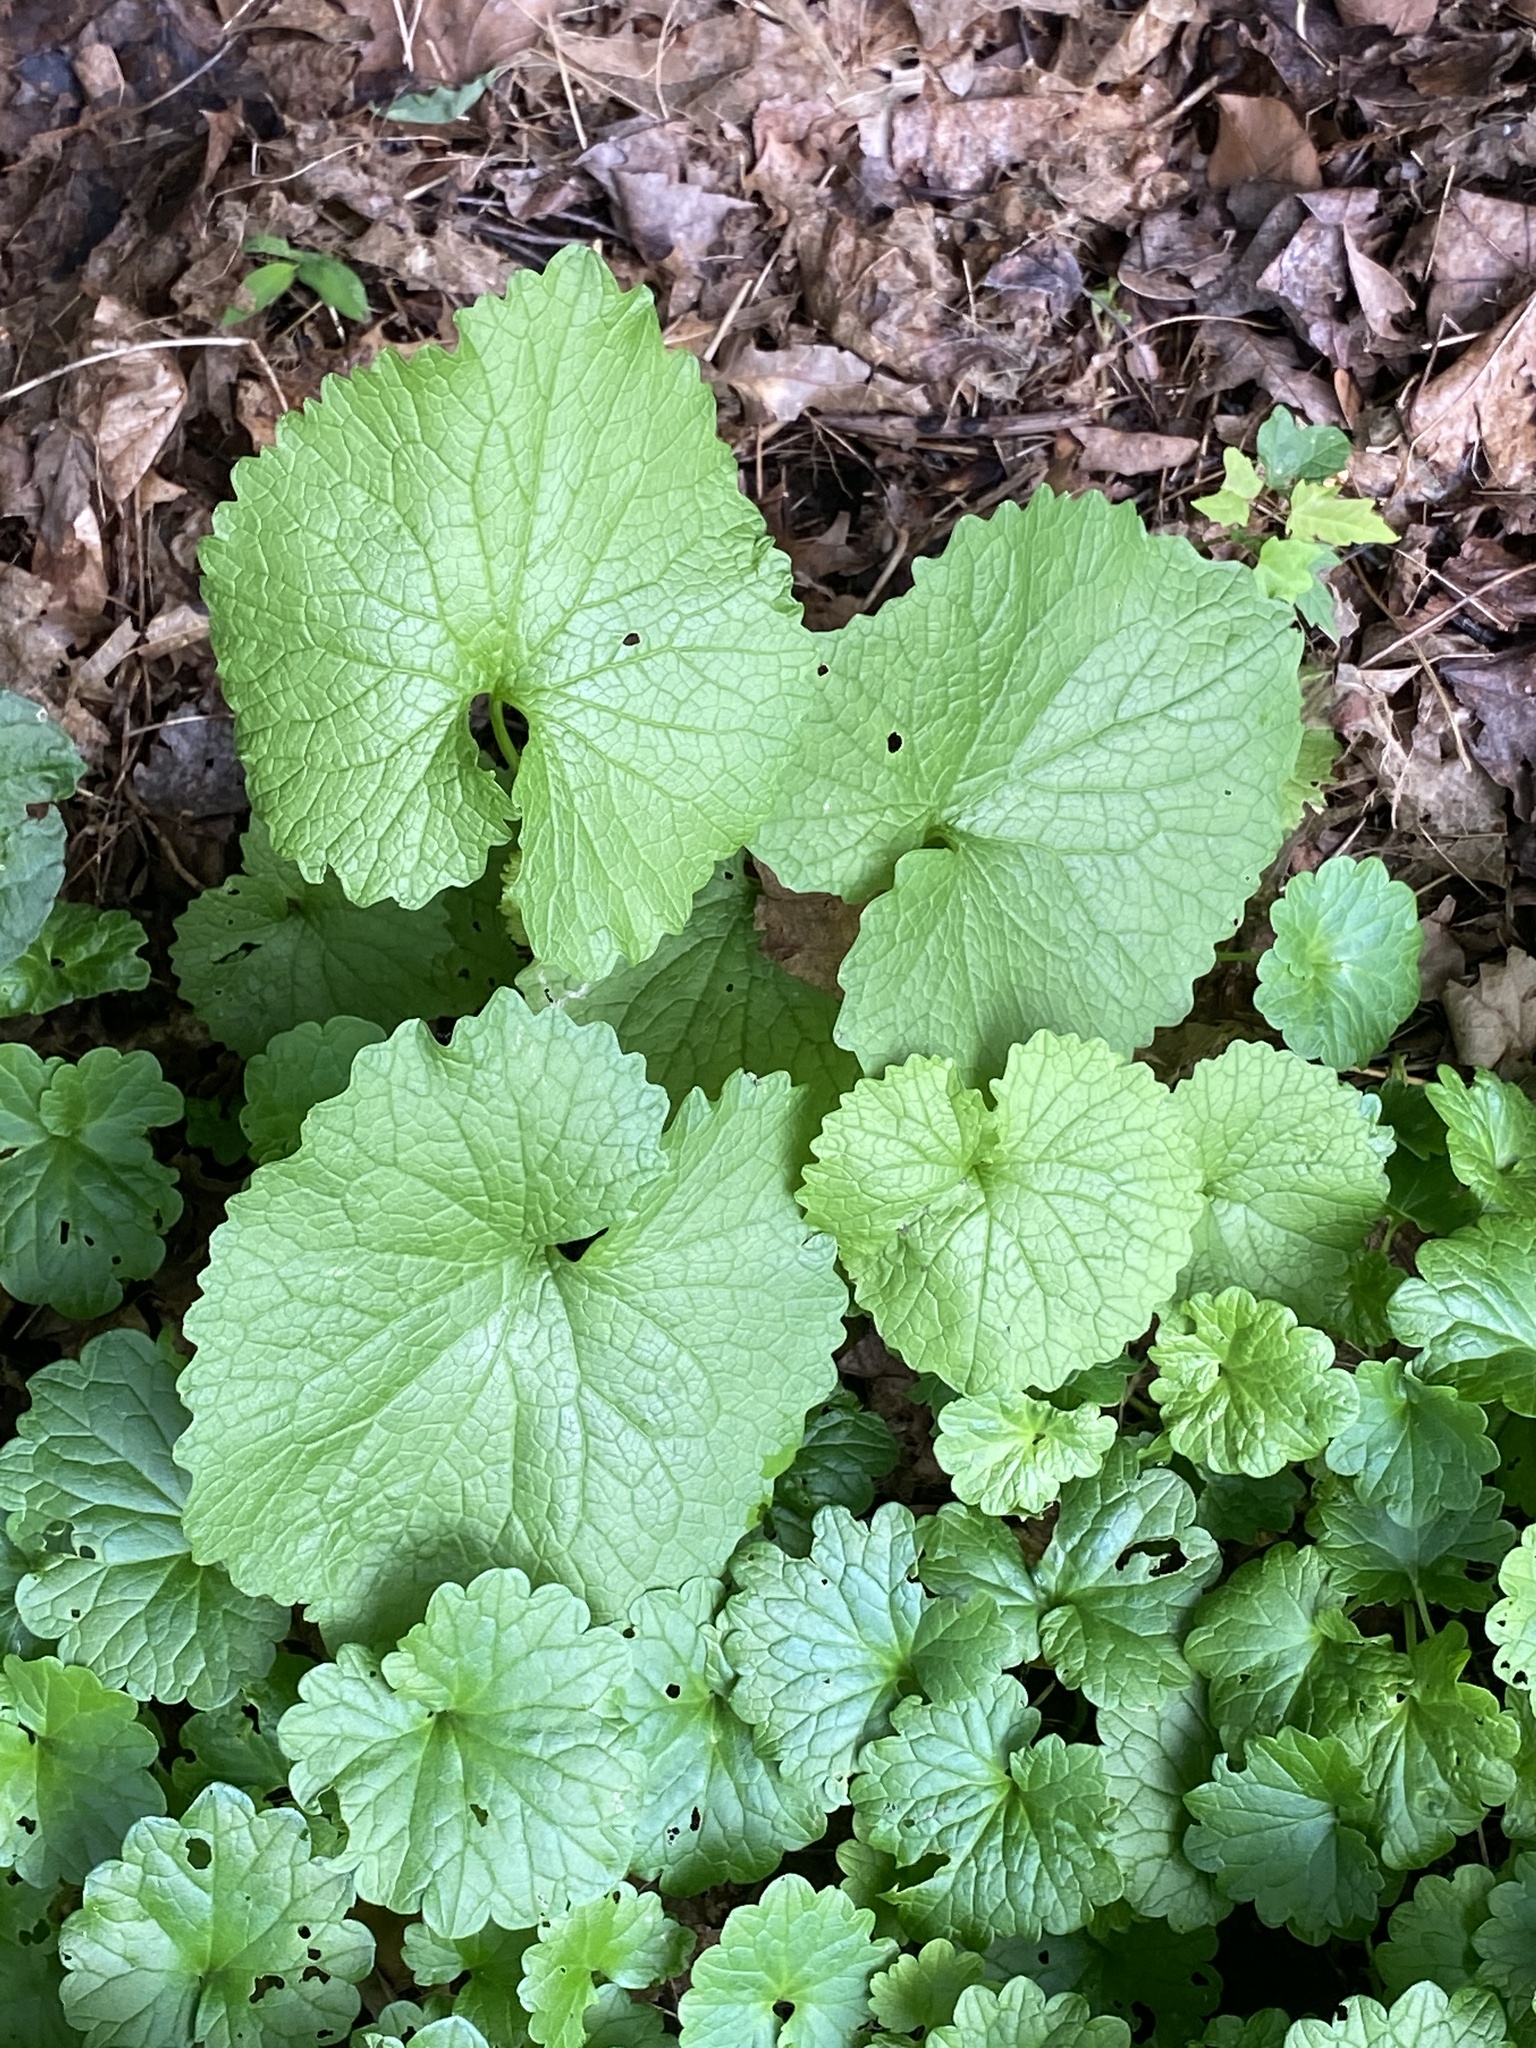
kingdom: Plantae
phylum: Tracheophyta
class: Magnoliopsida
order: Brassicales
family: Brassicaceae
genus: Alliaria
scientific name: Alliaria petiolata
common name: Garlic mustard
